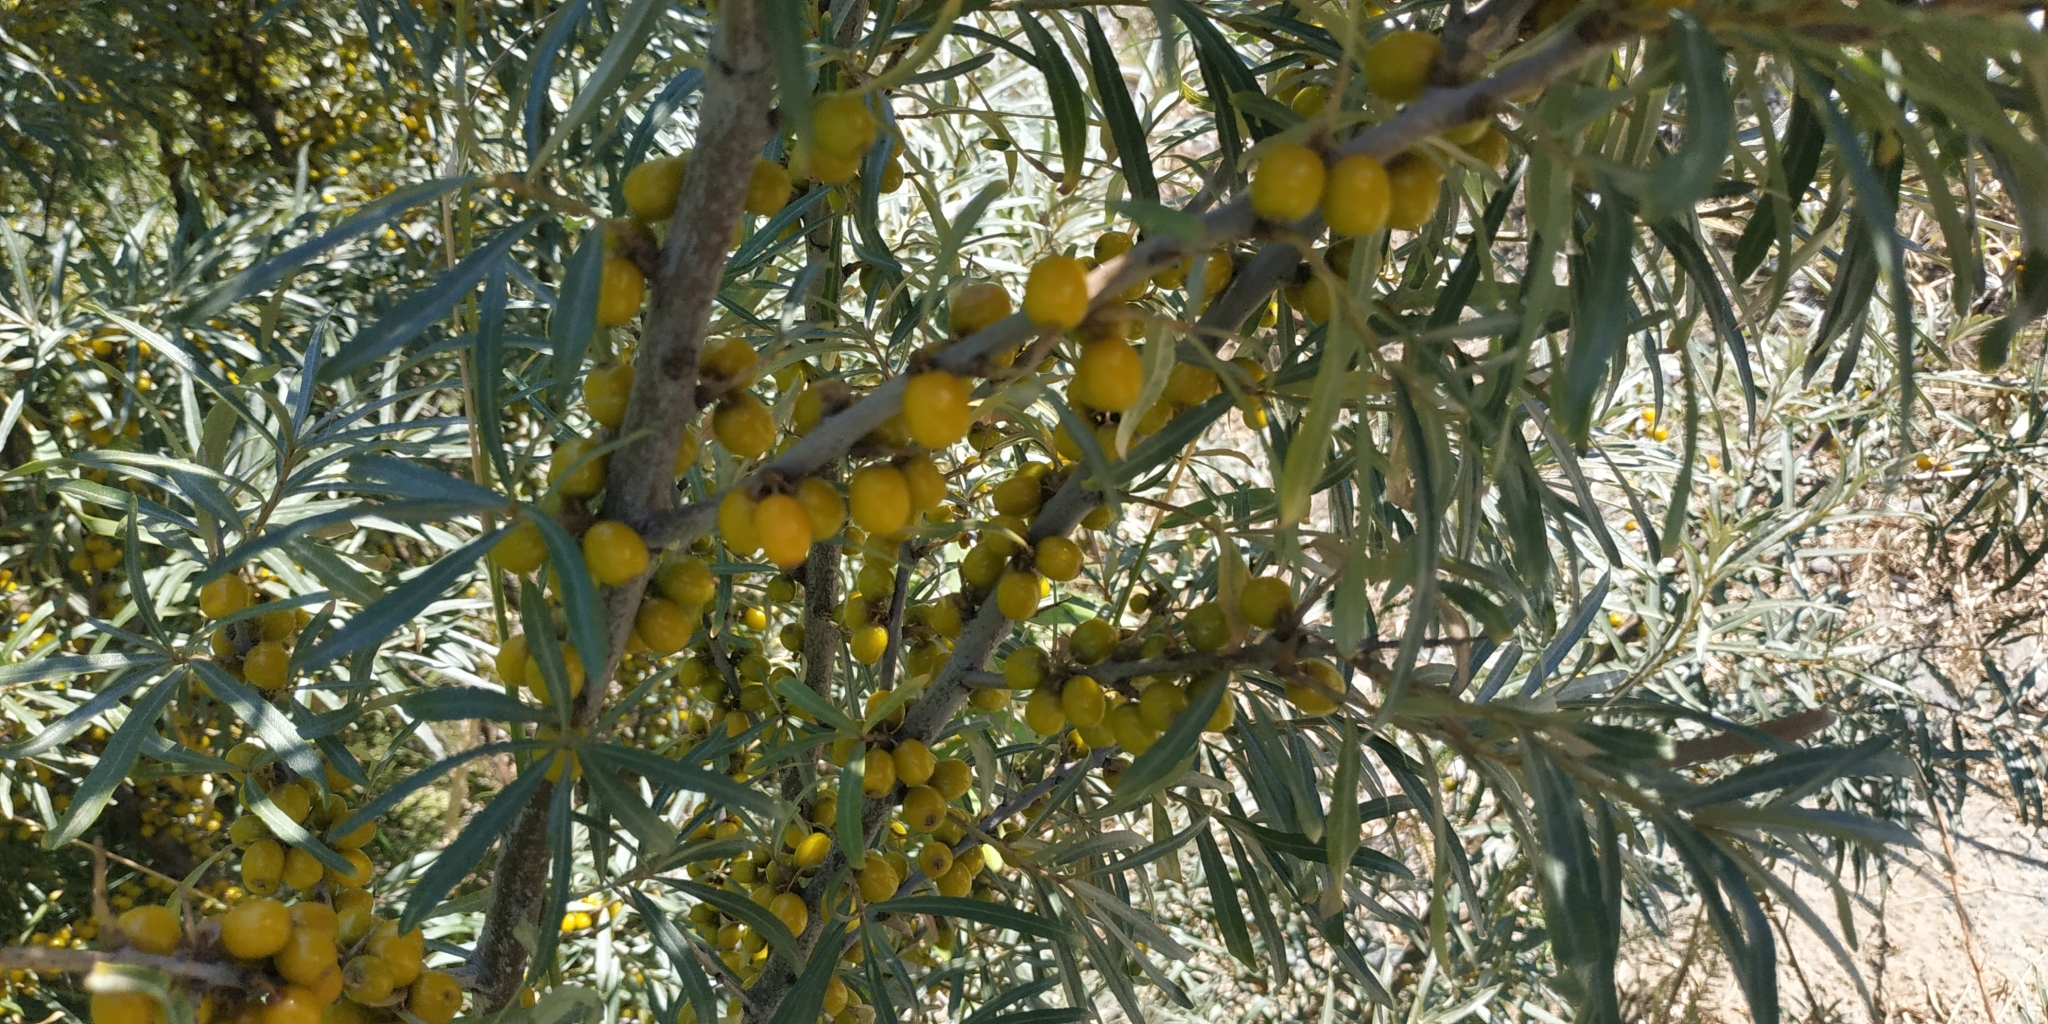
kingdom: Plantae
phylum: Tracheophyta
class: Magnoliopsida
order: Rosales
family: Elaeagnaceae
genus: Hippophae
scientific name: Hippophae rhamnoides
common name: Sea-buckthorn
